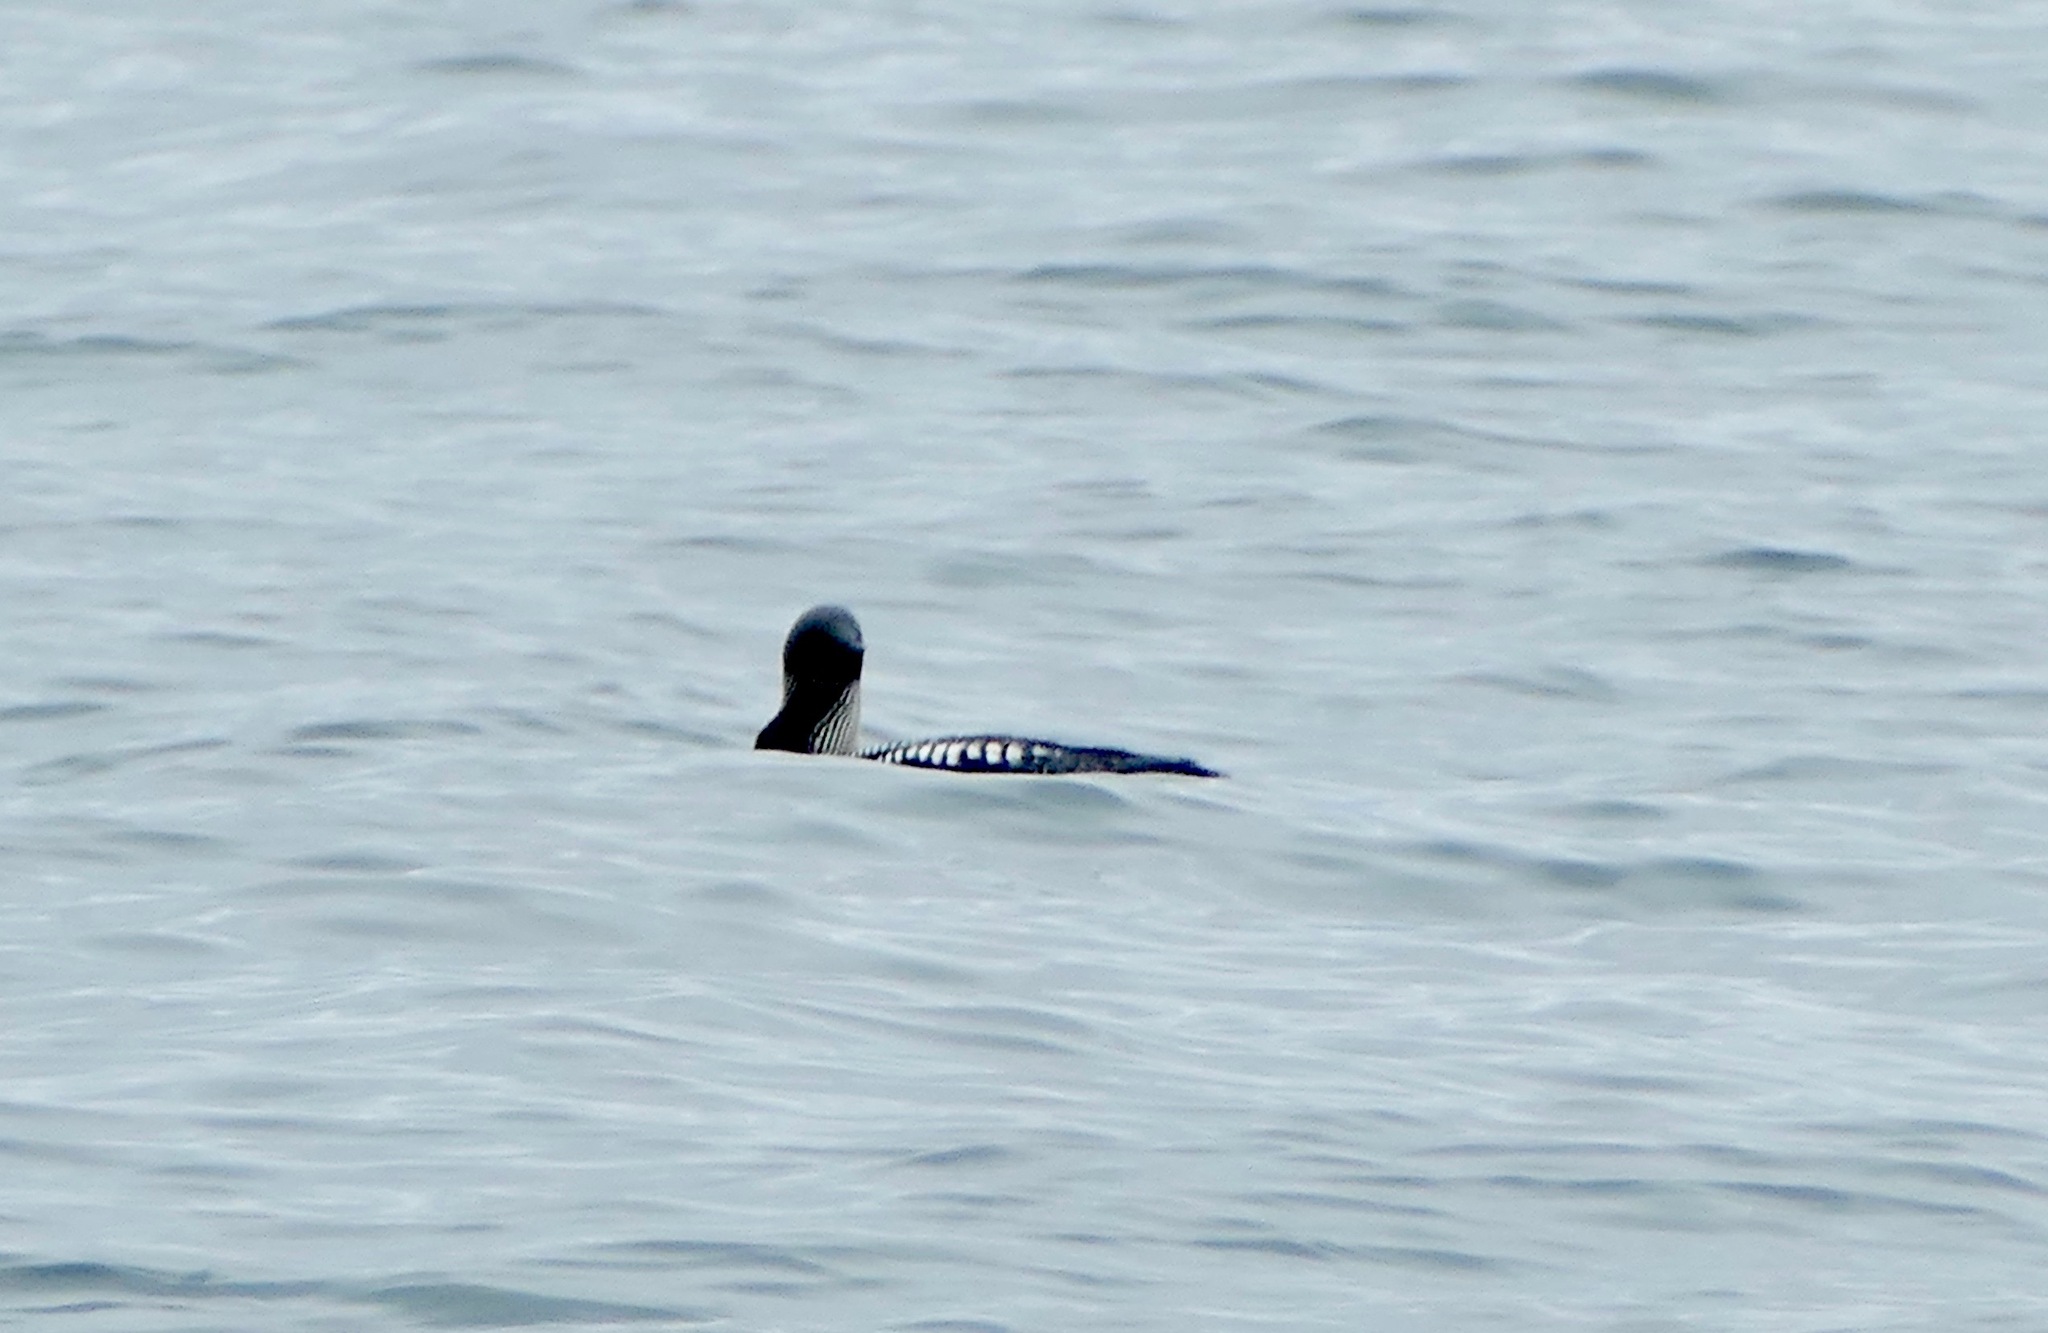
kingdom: Animalia
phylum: Chordata
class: Aves
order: Gaviiformes
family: Gaviidae
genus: Gavia
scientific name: Gavia pacifica
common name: Pacific loon
